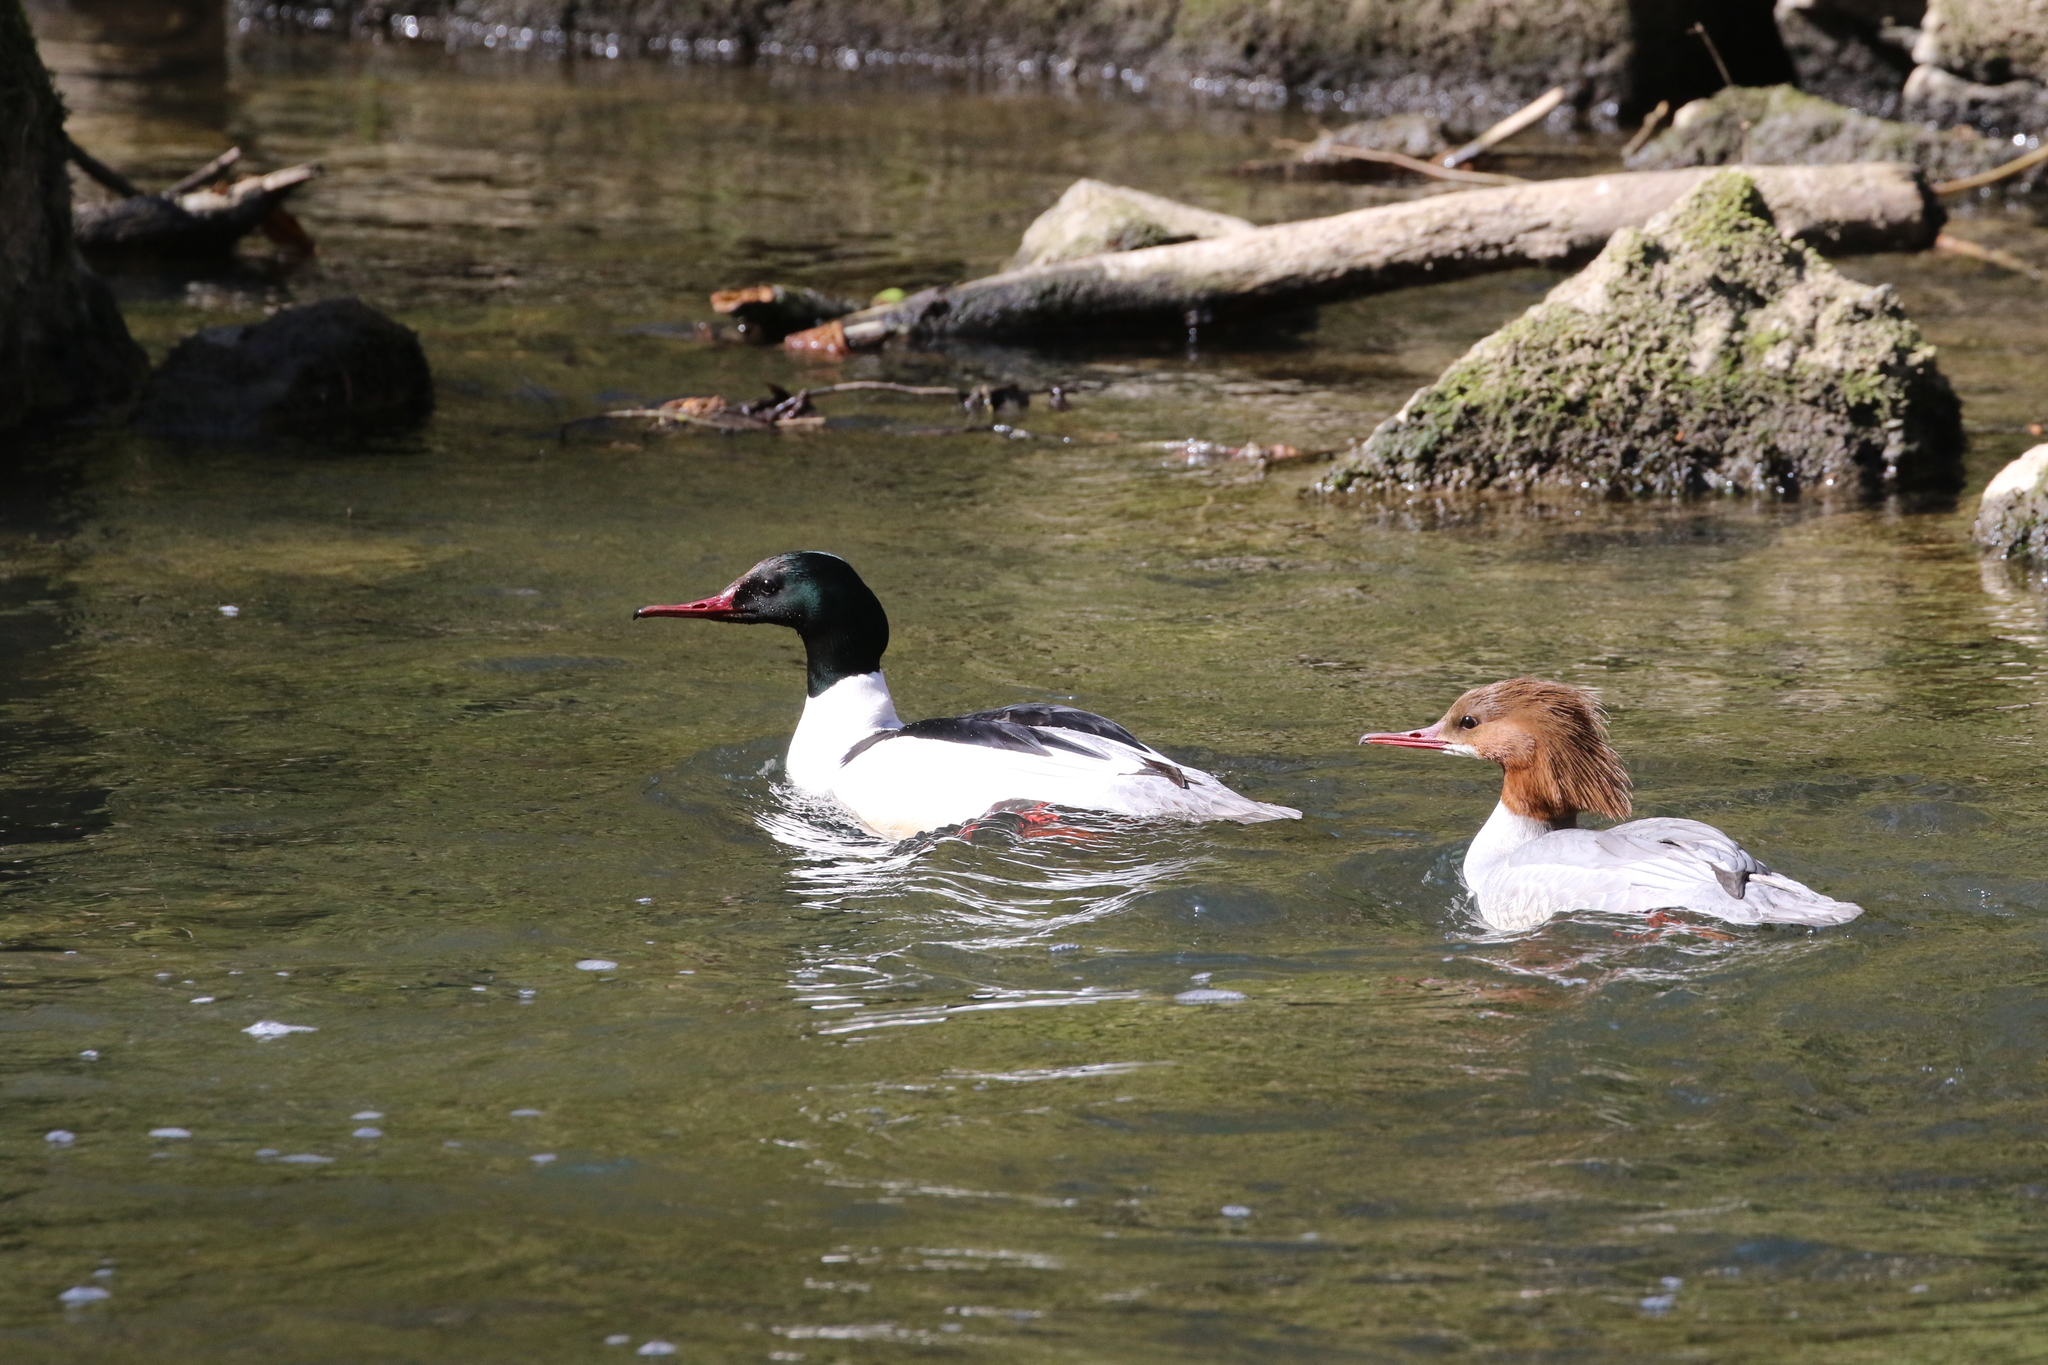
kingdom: Animalia
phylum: Chordata
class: Aves
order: Anseriformes
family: Anatidae
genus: Mergus
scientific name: Mergus merganser
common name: Common merganser
